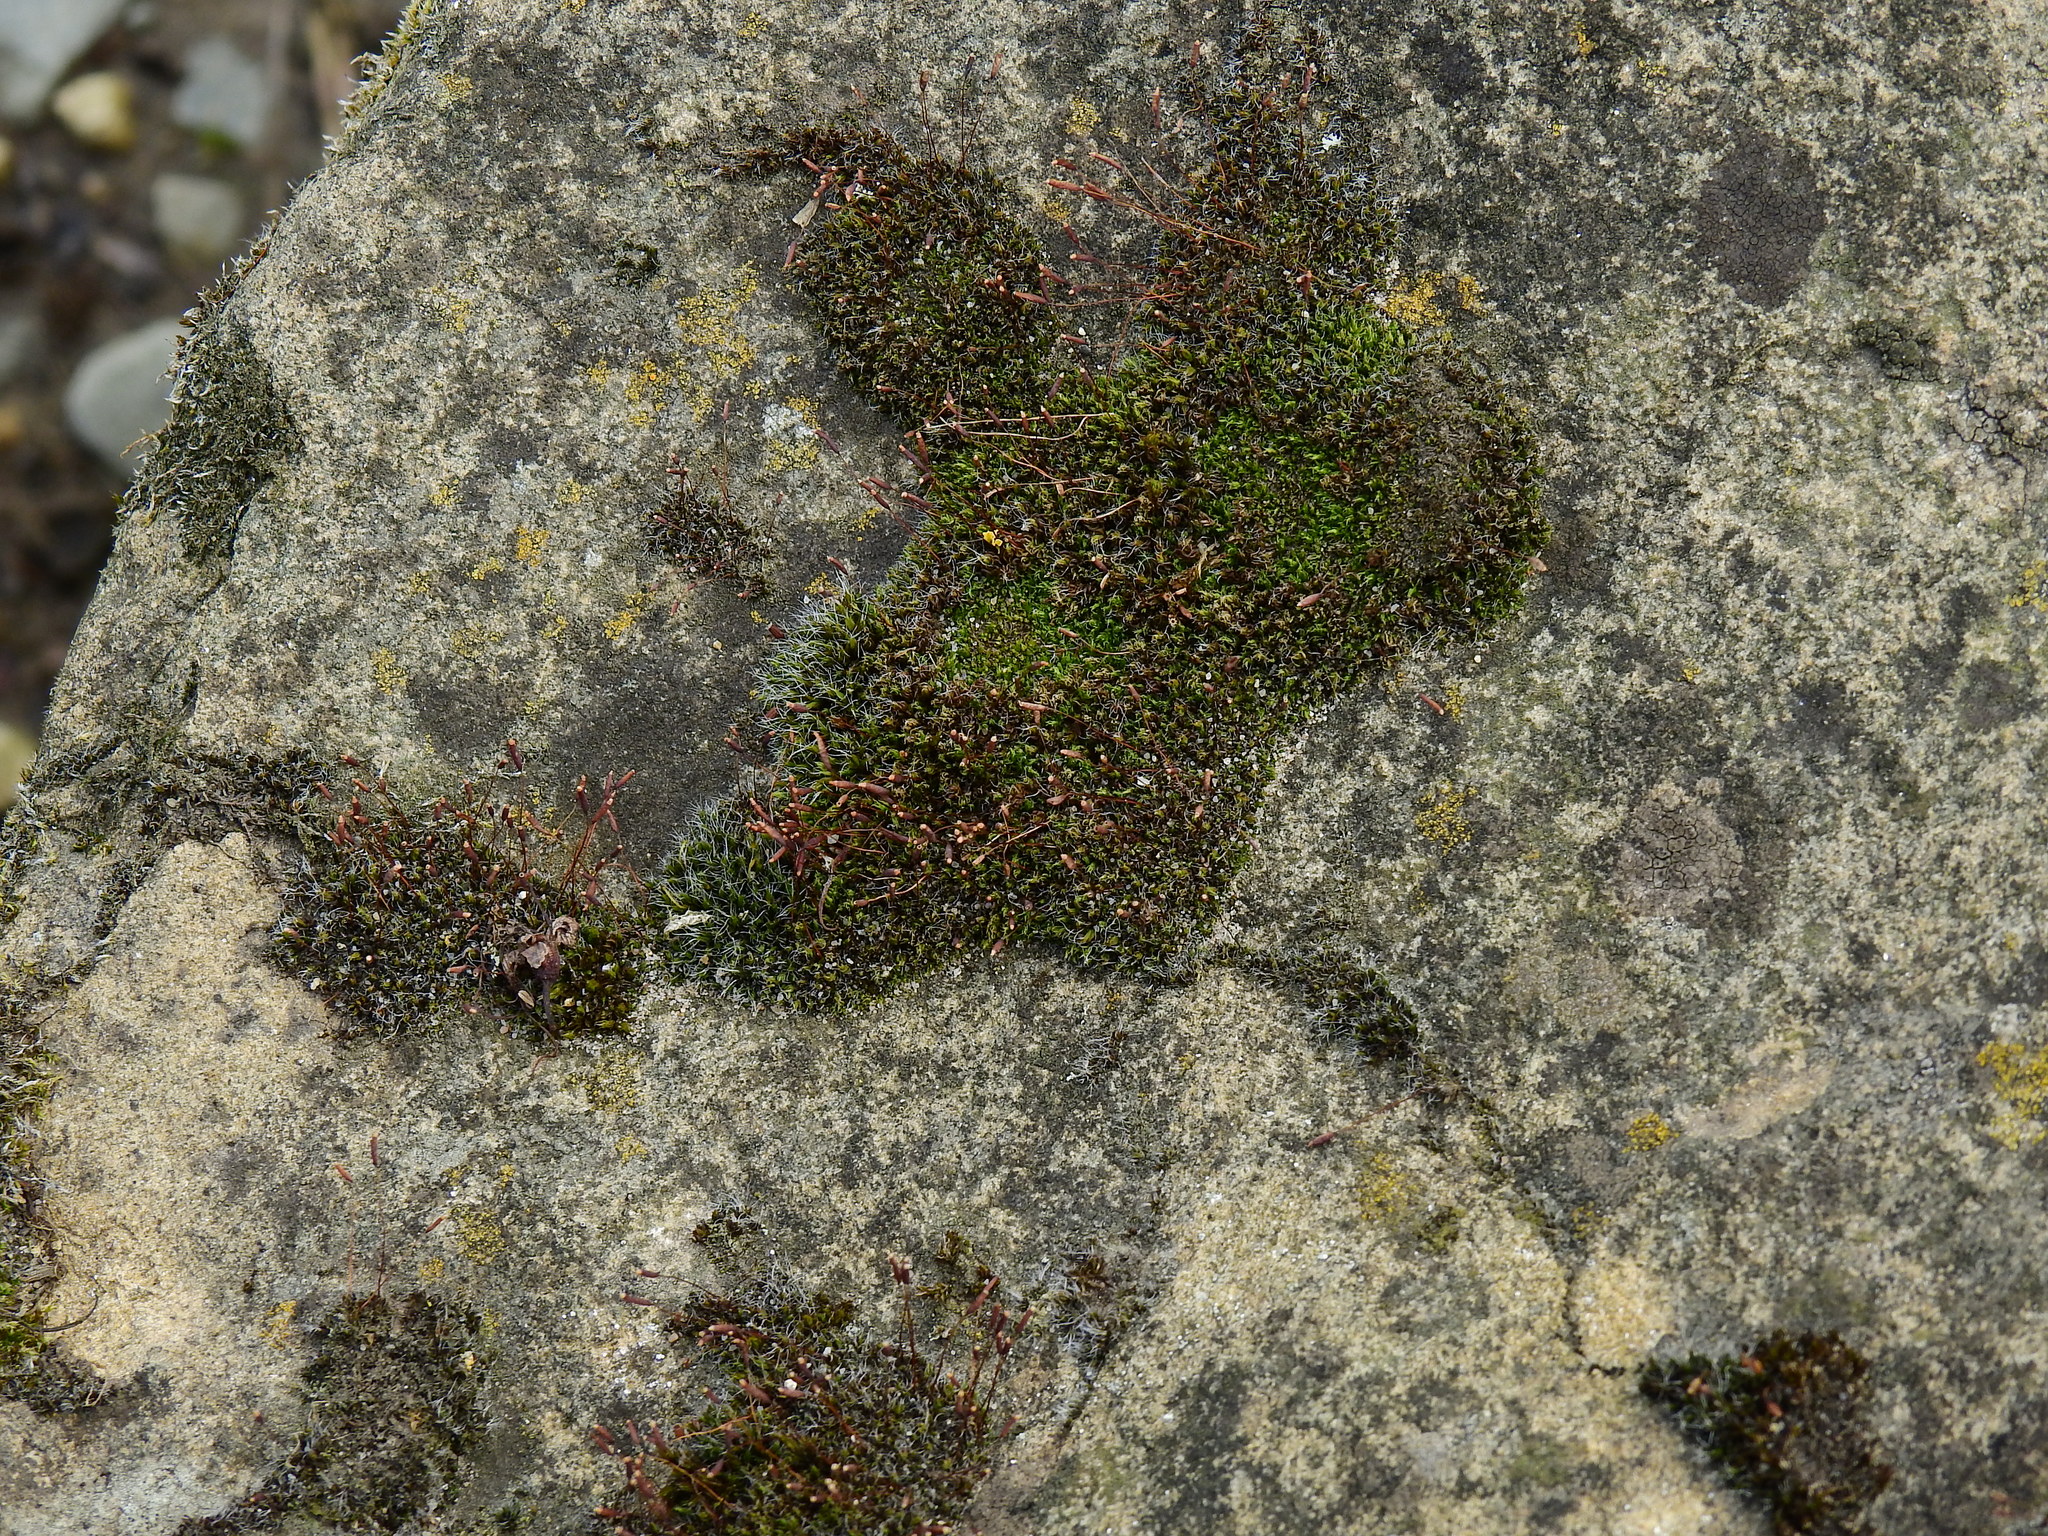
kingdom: Plantae
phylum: Bryophyta
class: Bryopsida
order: Pottiales
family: Pottiaceae
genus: Tortula
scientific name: Tortula muralis
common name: Wall screw-moss
